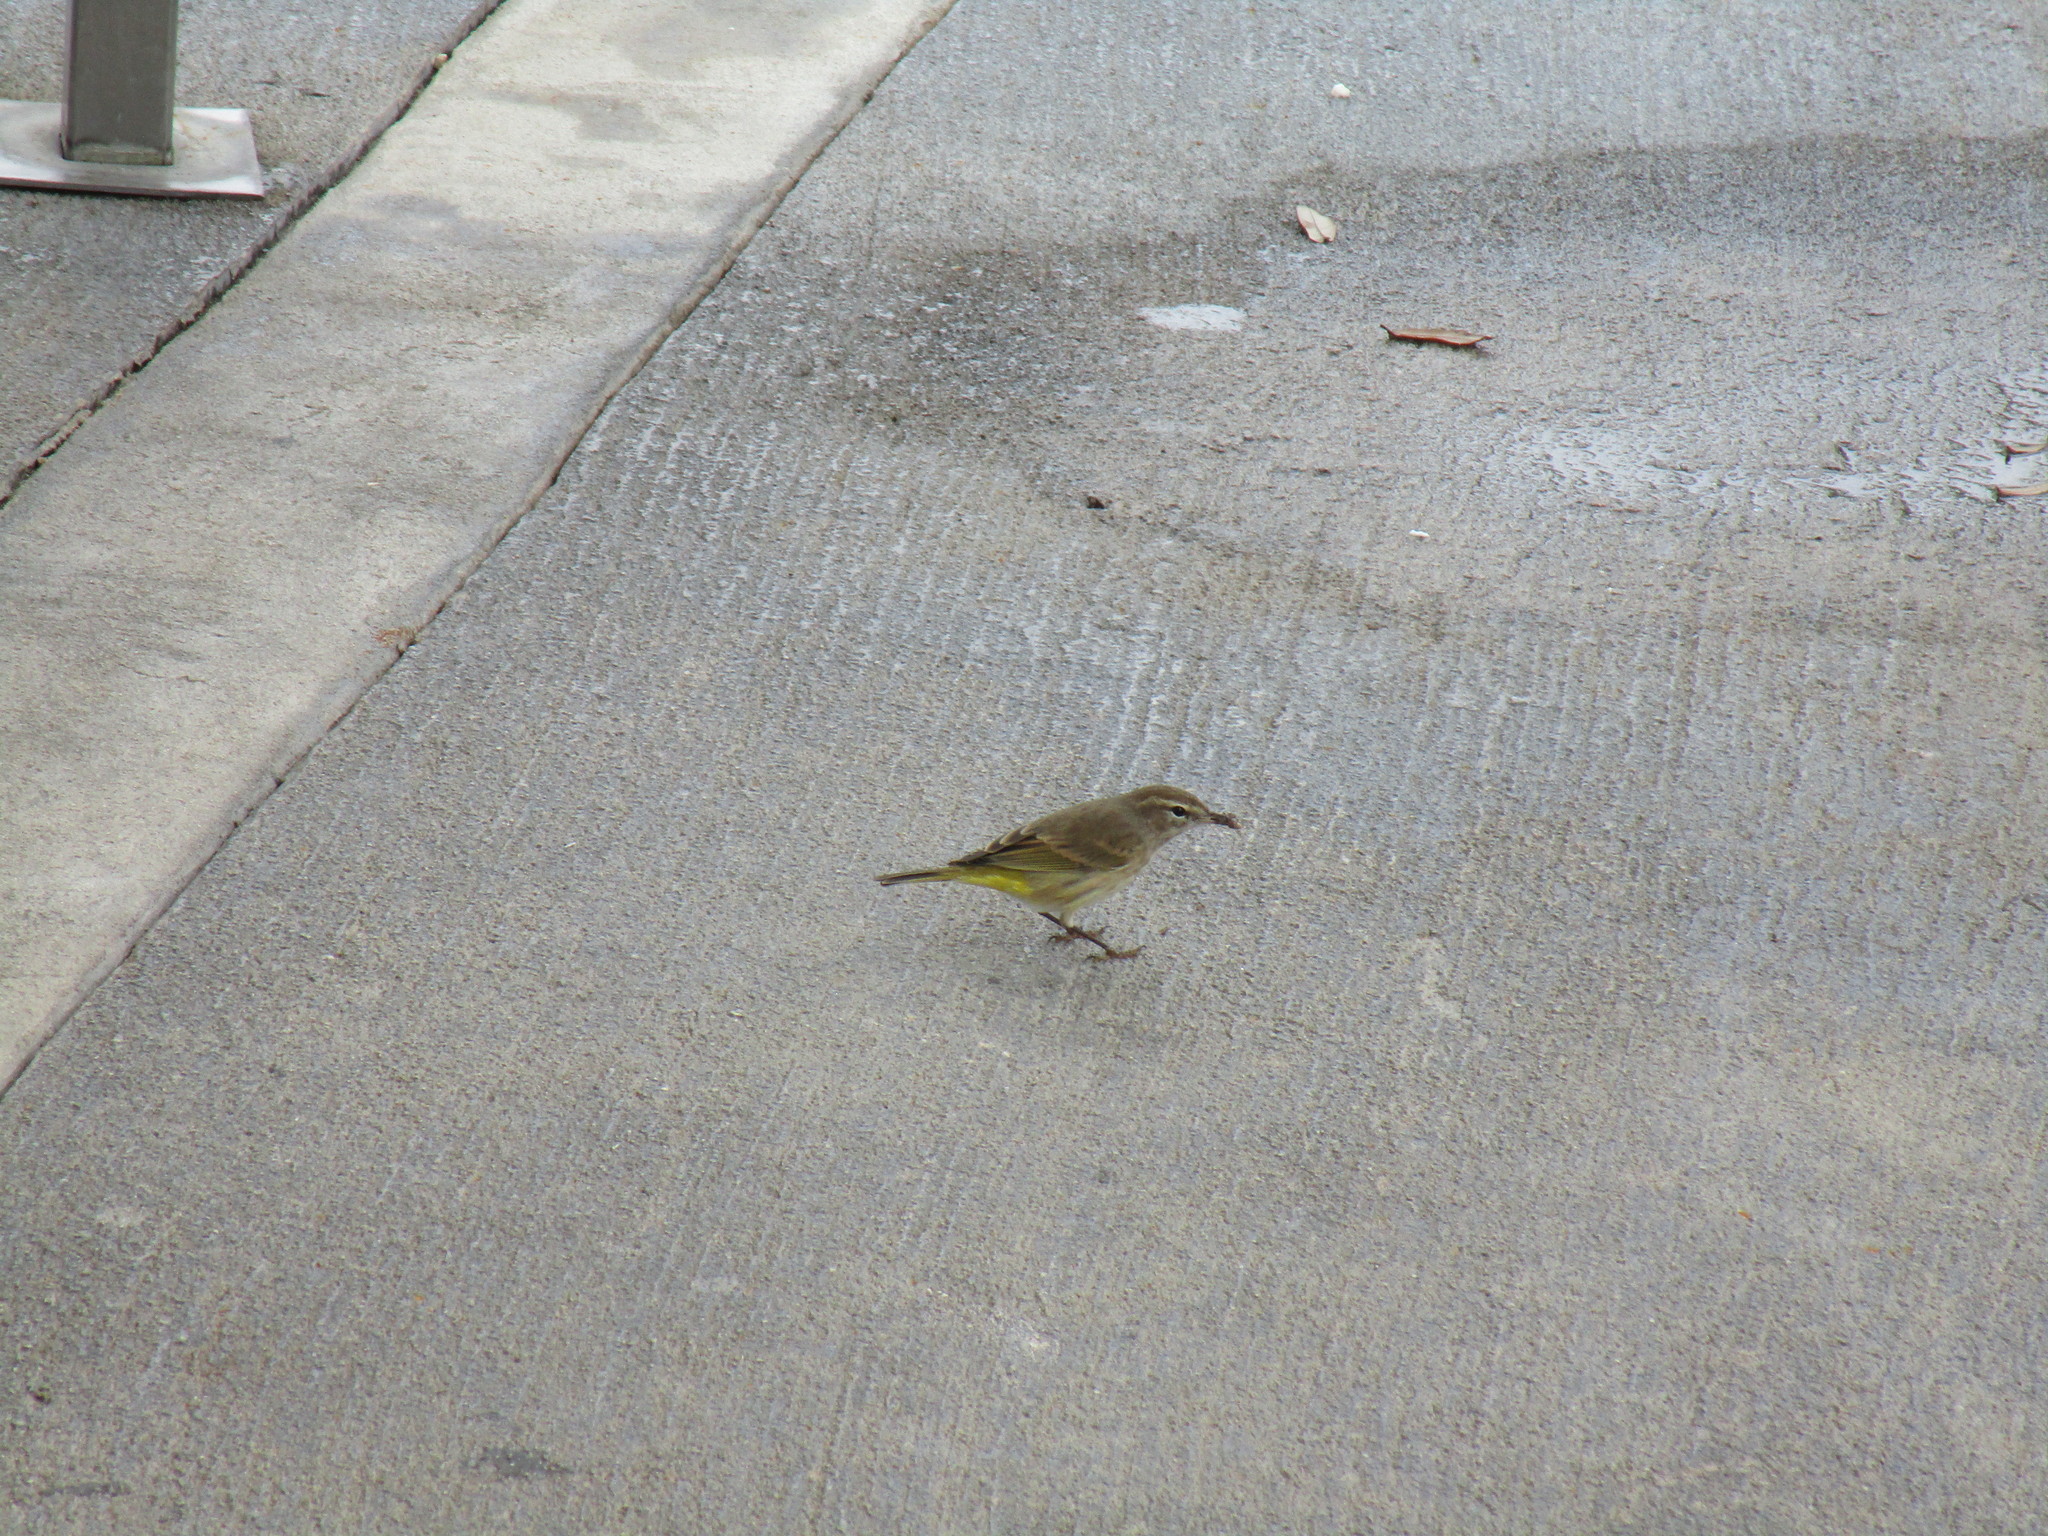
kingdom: Animalia
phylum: Chordata
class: Aves
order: Passeriformes
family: Parulidae
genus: Setophaga
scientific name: Setophaga palmarum
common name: Palm warbler
